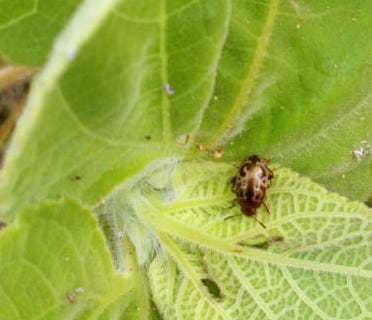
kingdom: Animalia
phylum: Arthropoda
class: Insecta
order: Coleoptera
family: Chrysomelidae
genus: Calligrapha
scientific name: Calligrapha
